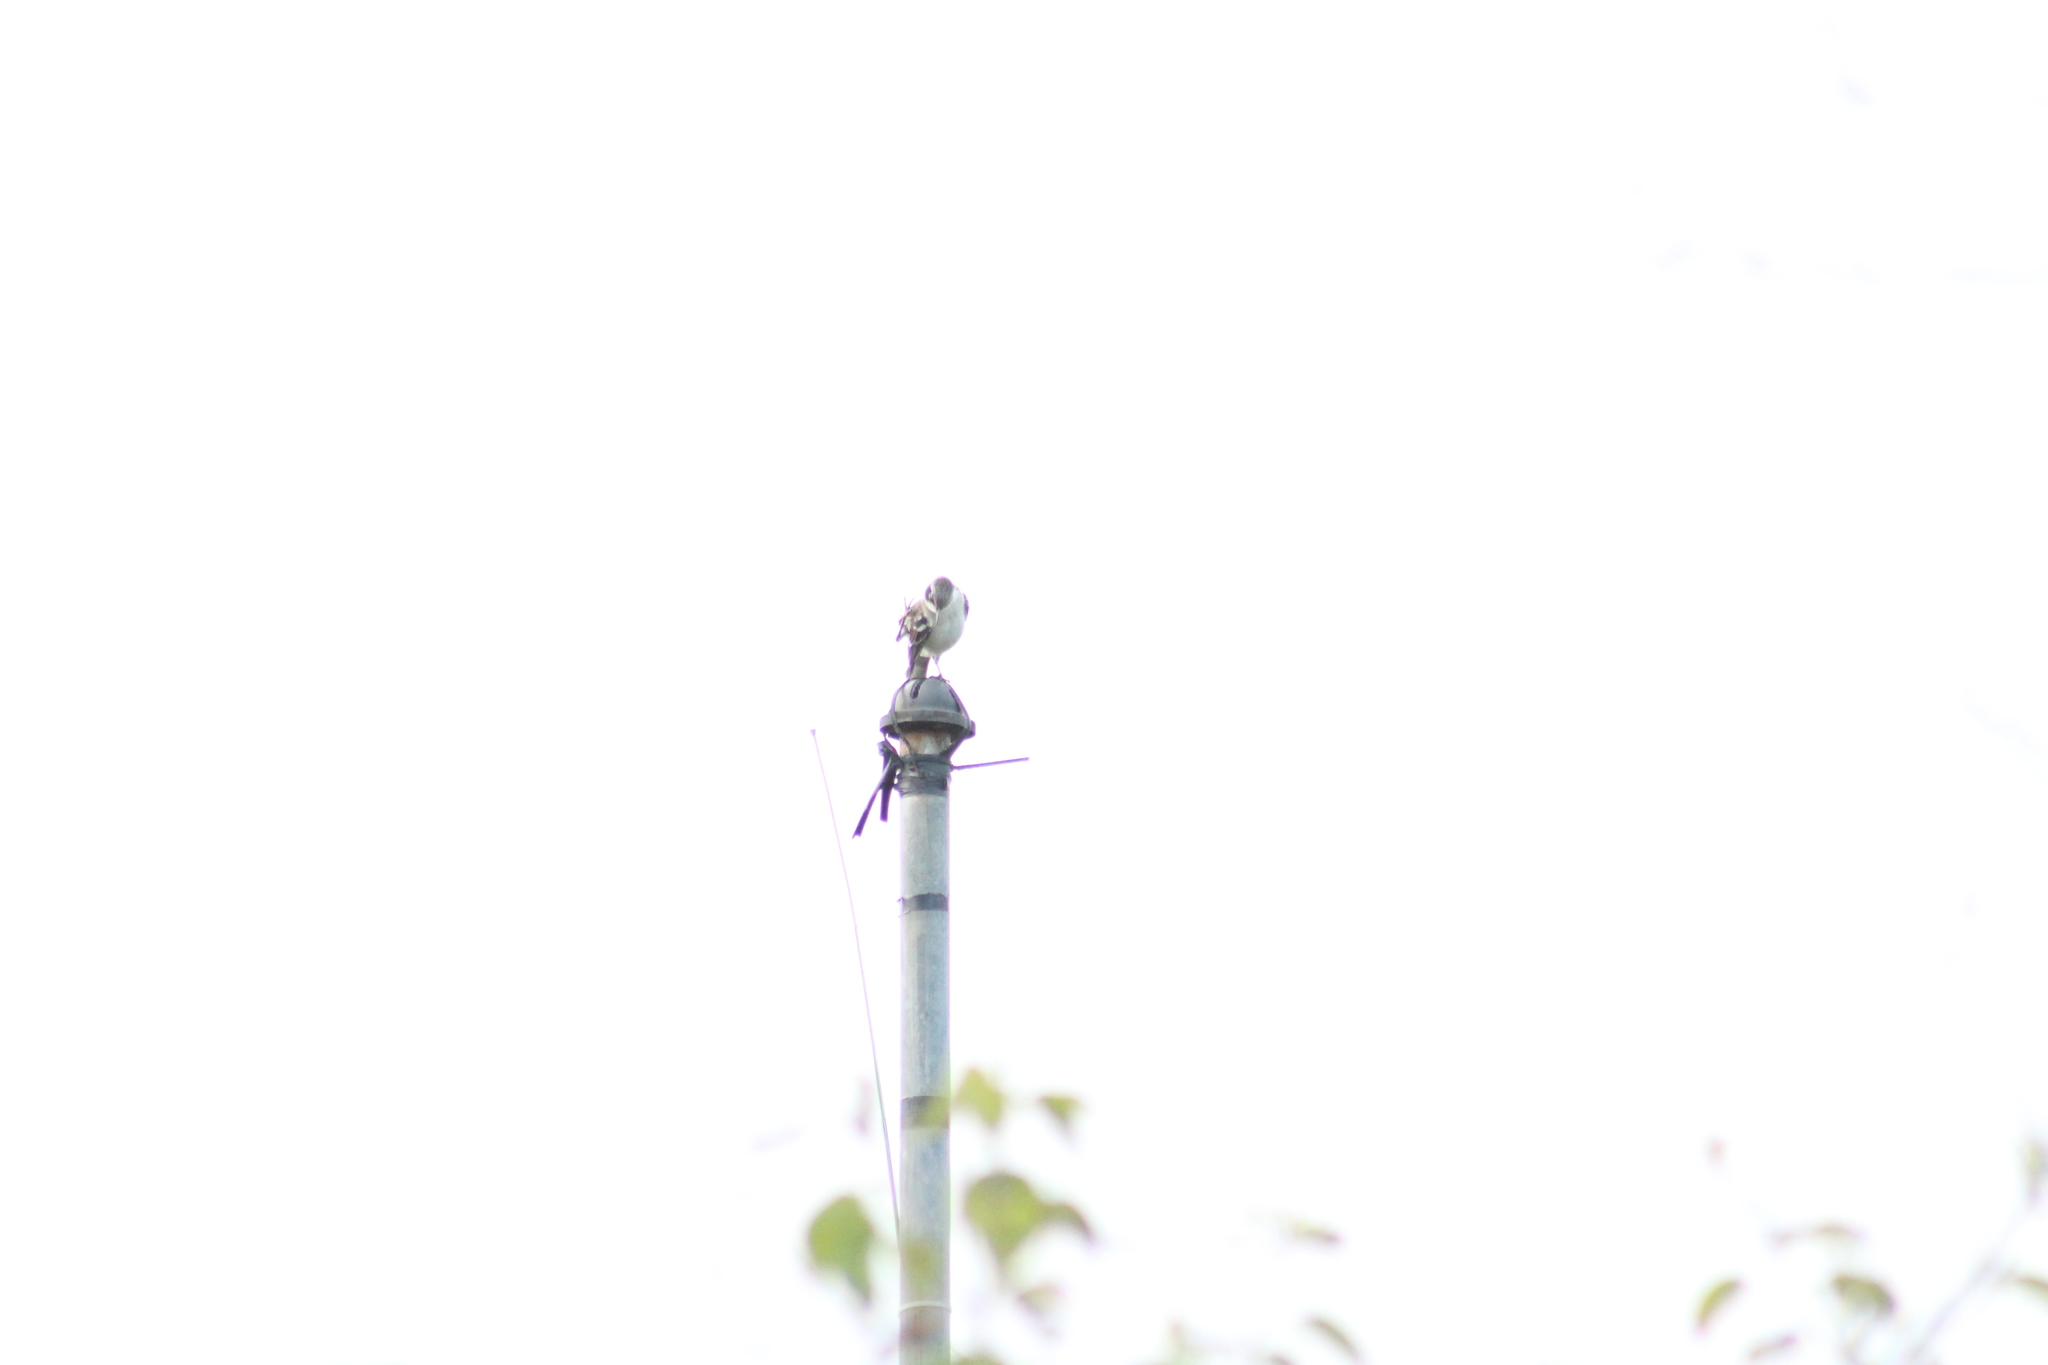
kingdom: Animalia
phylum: Chordata
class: Aves
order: Passeriformes
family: Mimidae
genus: Mimus
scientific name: Mimus parvulus
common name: Galapagos mockingbird
